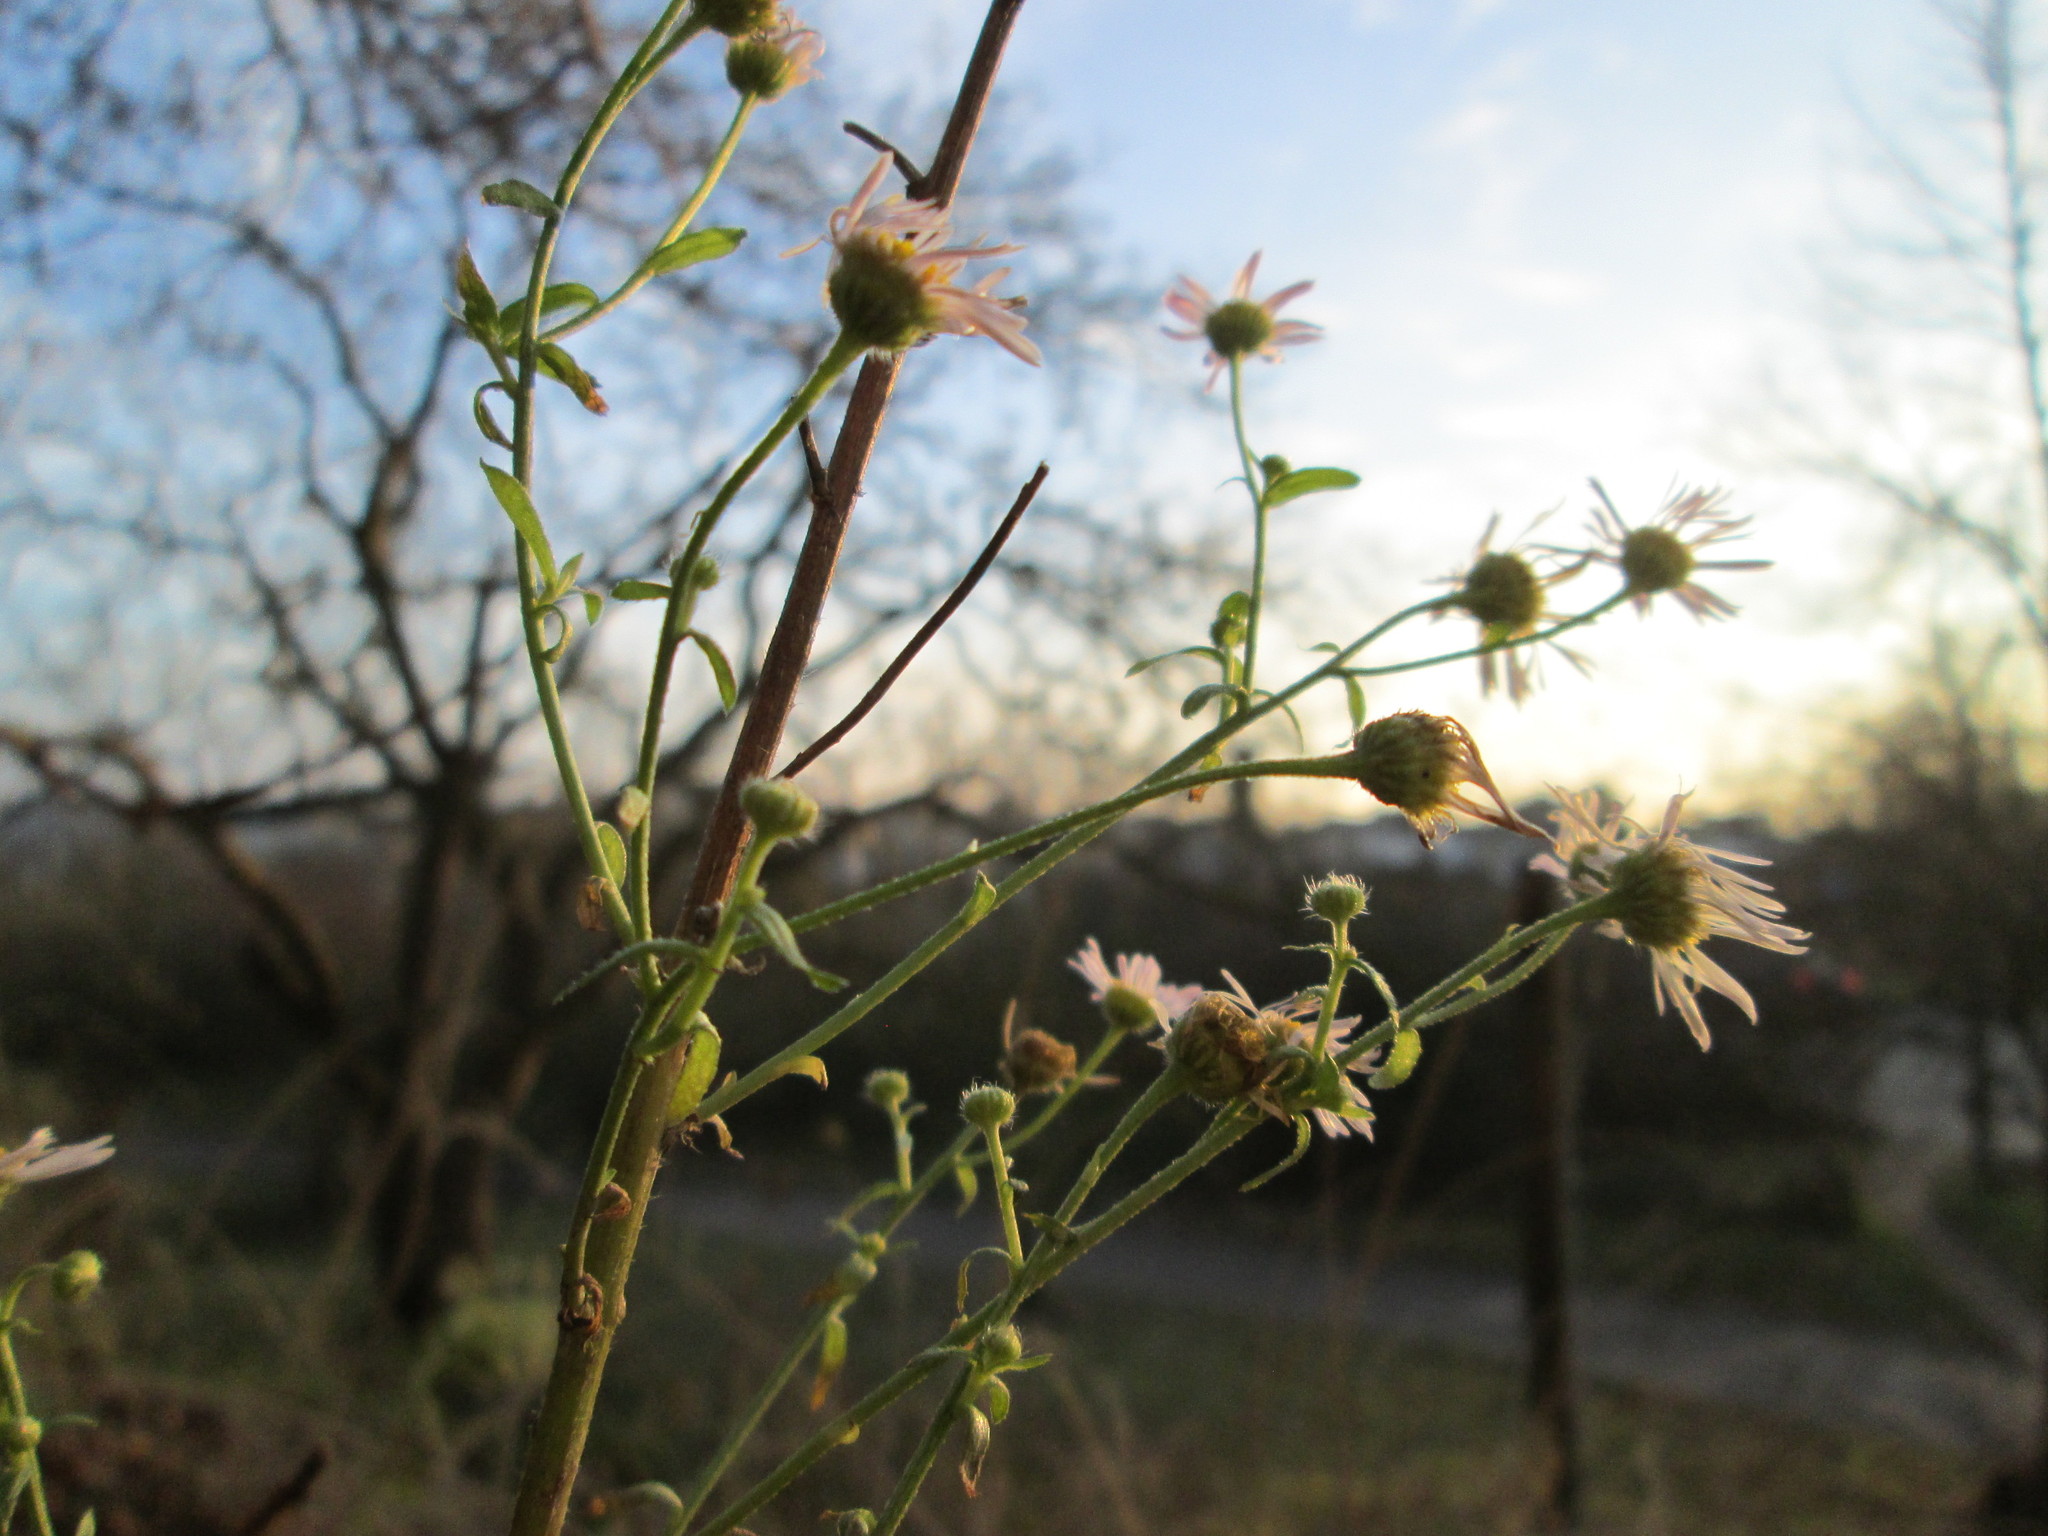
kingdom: Plantae
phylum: Tracheophyta
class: Magnoliopsida
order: Asterales
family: Asteraceae
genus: Erigeron
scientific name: Erigeron annuus
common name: Tall fleabane
